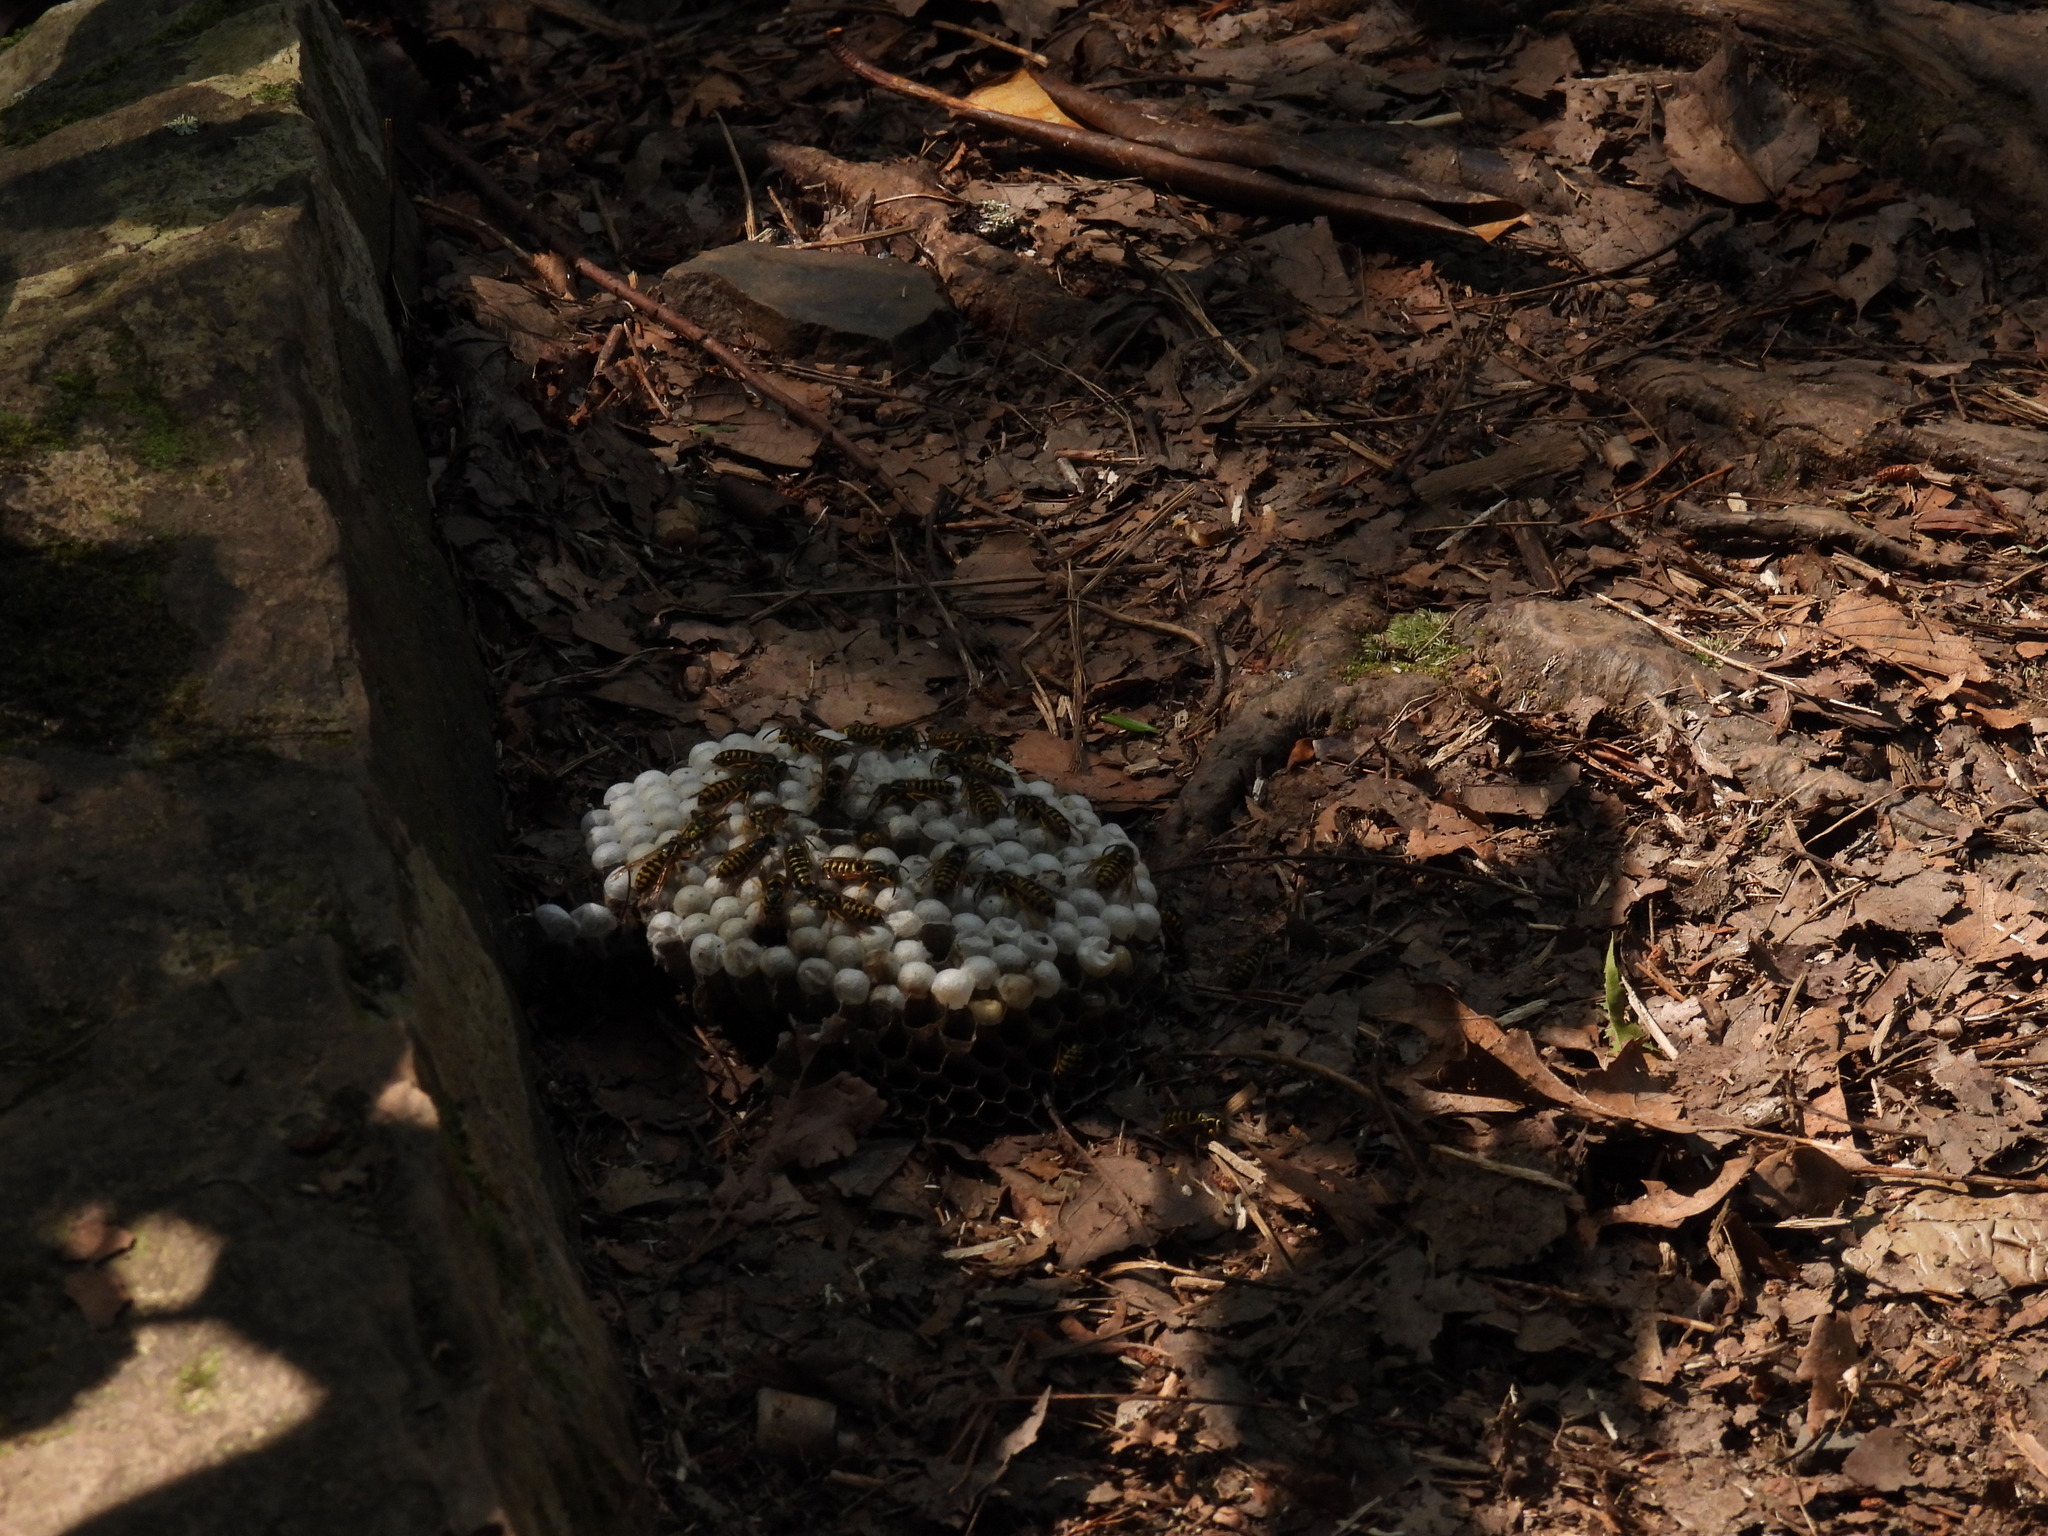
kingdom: Animalia
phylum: Arthropoda
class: Insecta
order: Hymenoptera
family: Vespidae
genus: Dolichovespula
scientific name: Dolichovespula arenaria
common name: Aerial yellowjacket
